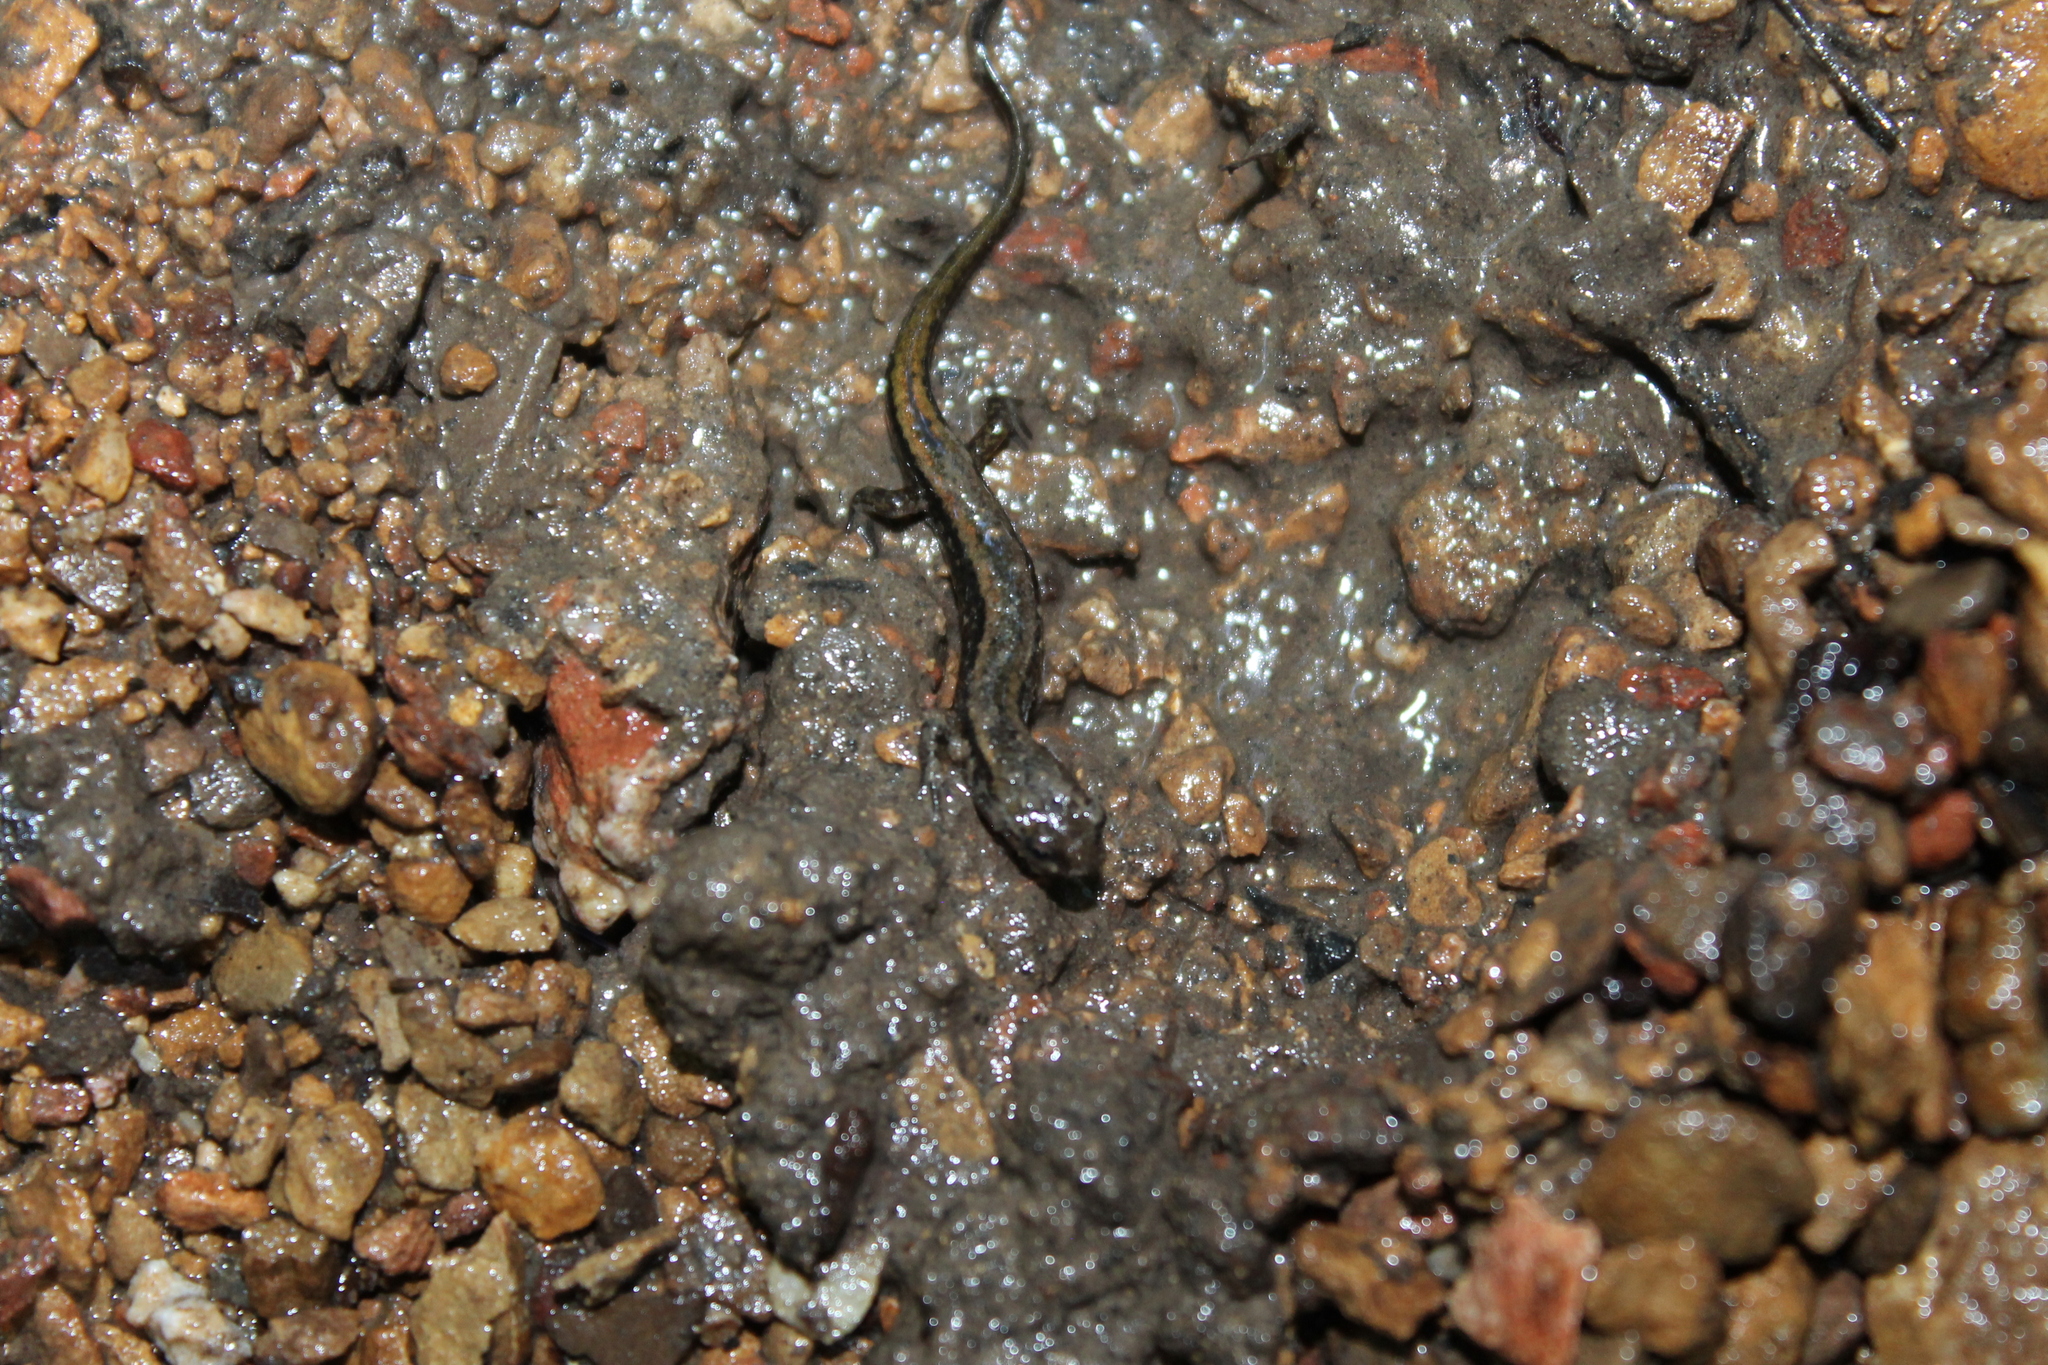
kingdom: Animalia
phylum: Chordata
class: Amphibia
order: Caudata
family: Plethodontidae
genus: Eurycea
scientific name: Eurycea cirrigera
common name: Southern two-lined salamander
